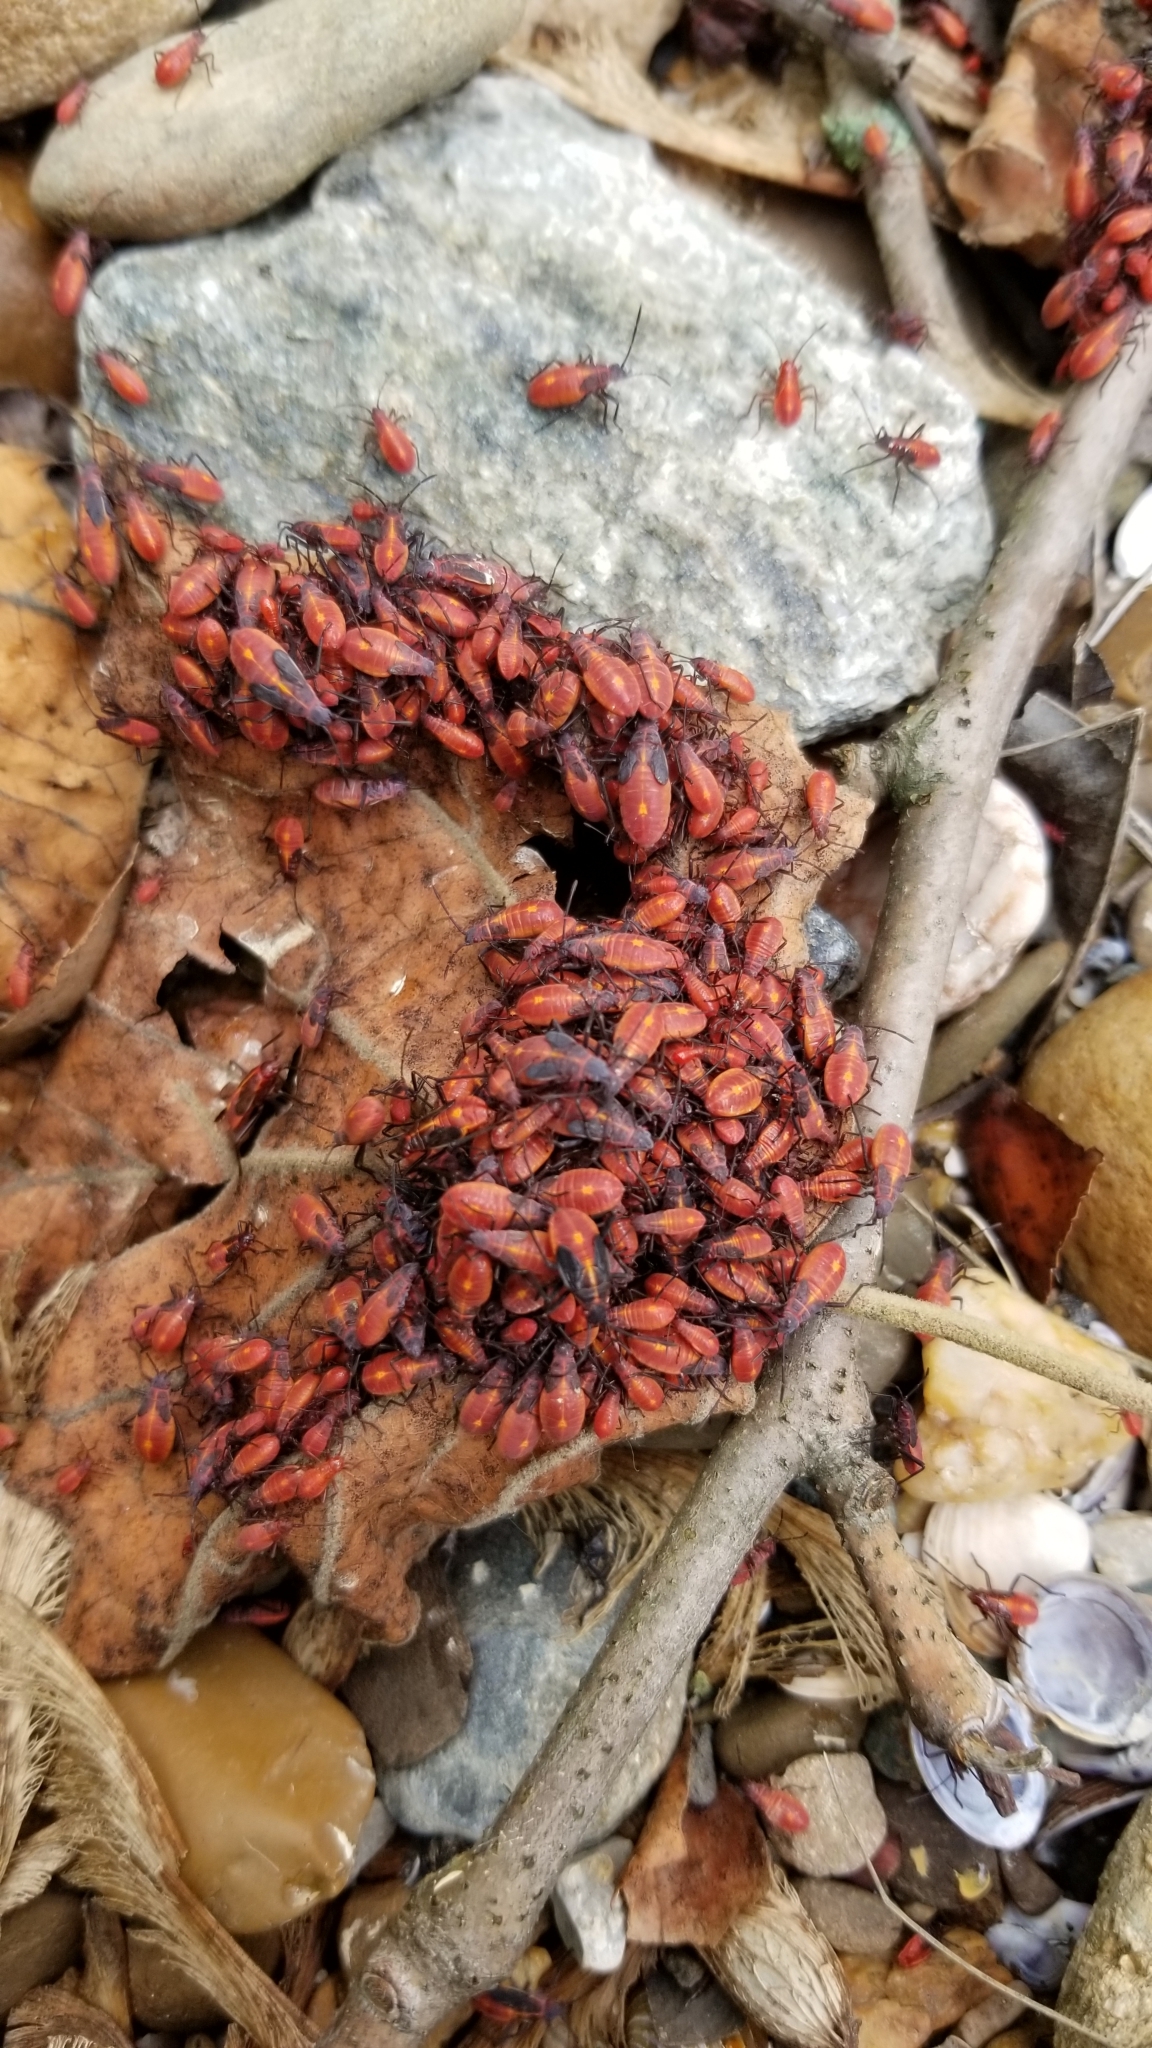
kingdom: Animalia
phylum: Arthropoda
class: Insecta
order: Hemiptera
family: Rhopalidae
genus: Boisea
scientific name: Boisea trivittata
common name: Boxelder bug
